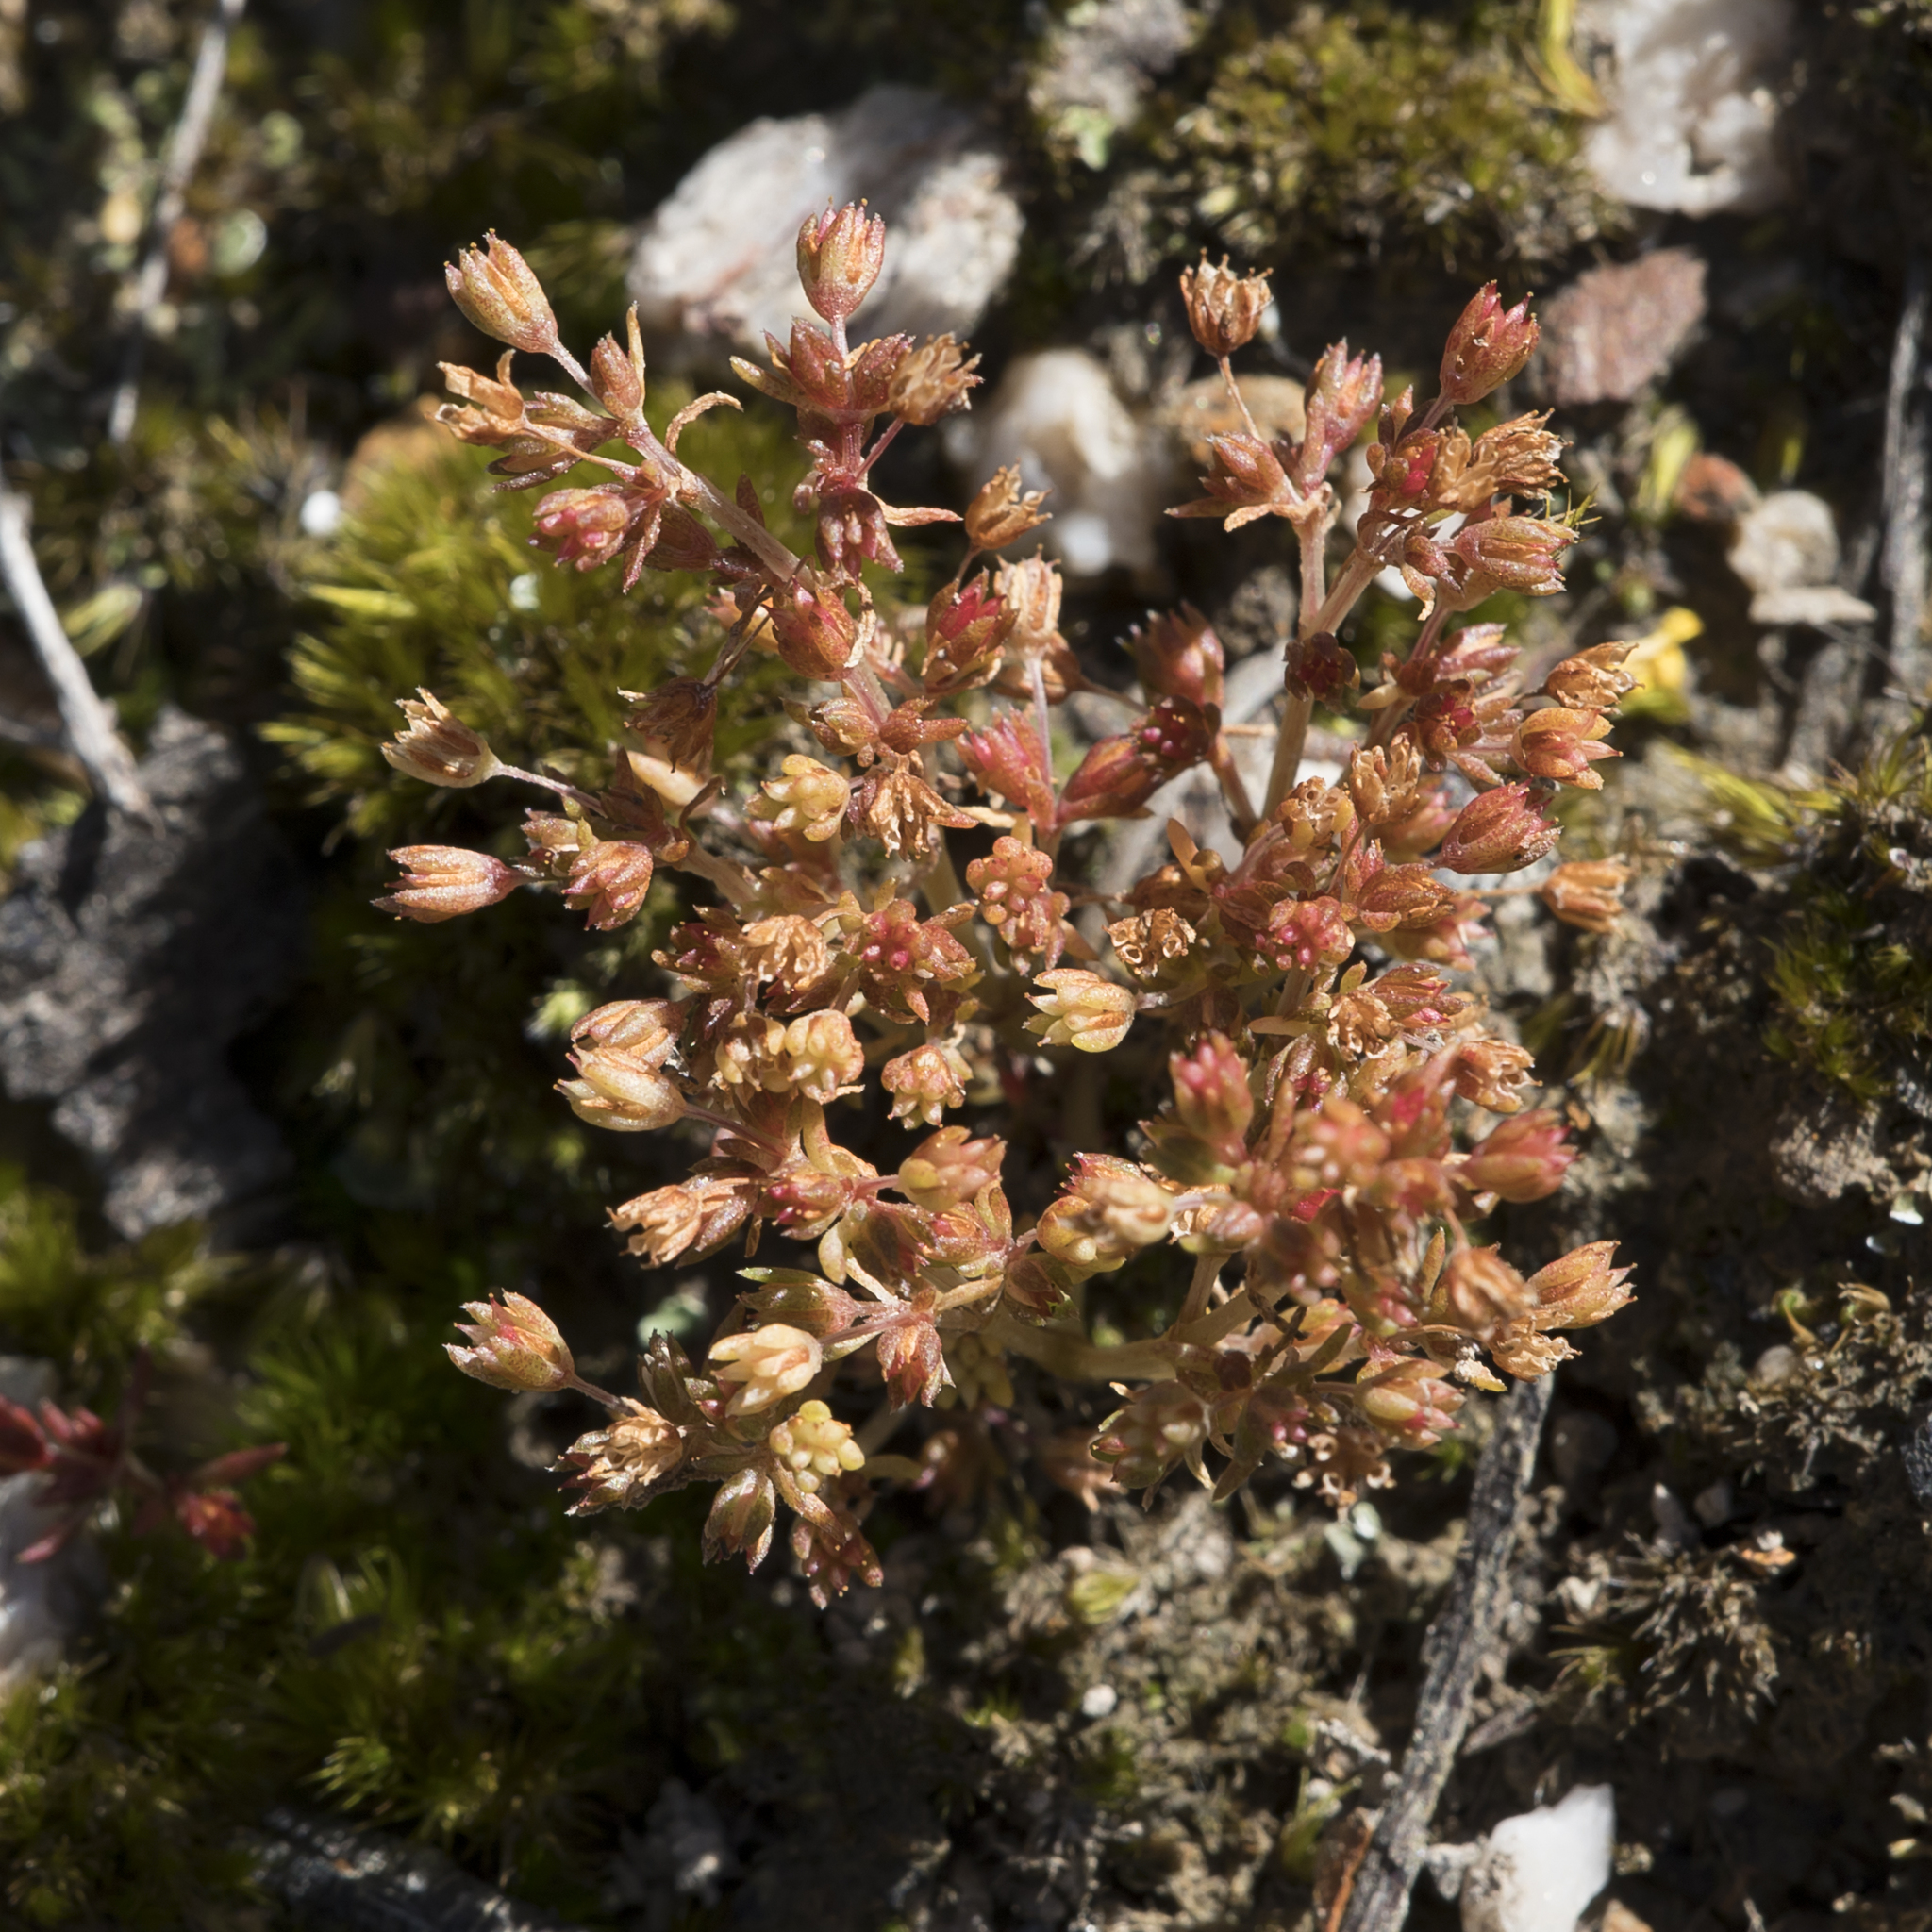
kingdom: Plantae
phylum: Tracheophyta
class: Magnoliopsida
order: Saxifragales
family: Crassulaceae
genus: Crassula
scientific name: Crassula decumbens
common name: Scilly pigmyweed
